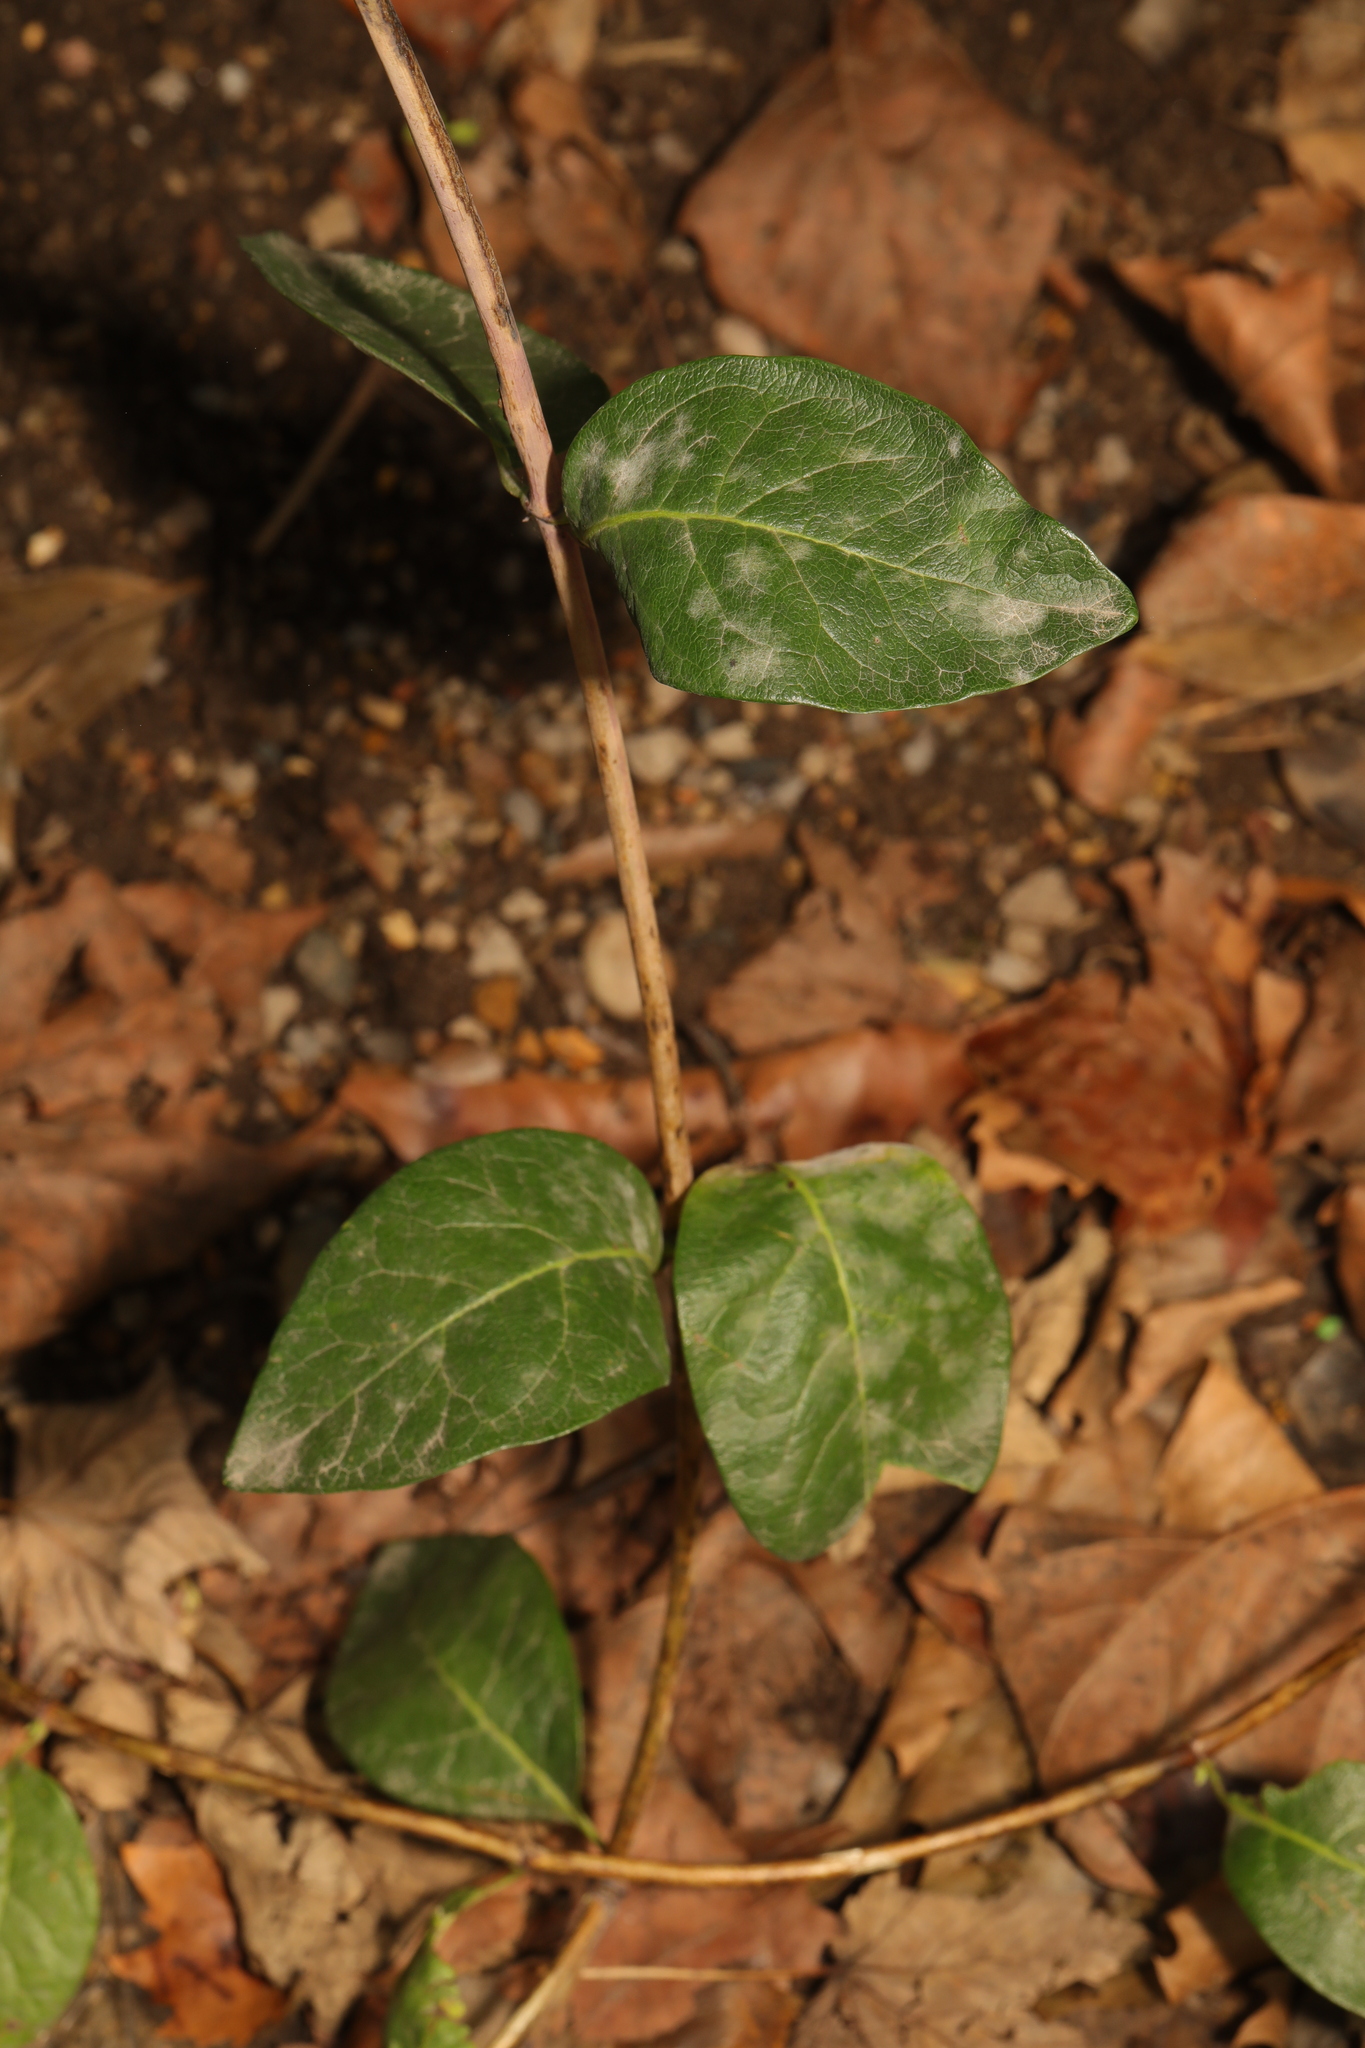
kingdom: Plantae
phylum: Tracheophyta
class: Magnoliopsida
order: Dipsacales
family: Caprifoliaceae
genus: Lonicera
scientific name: Lonicera periclymenum
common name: European honeysuckle
